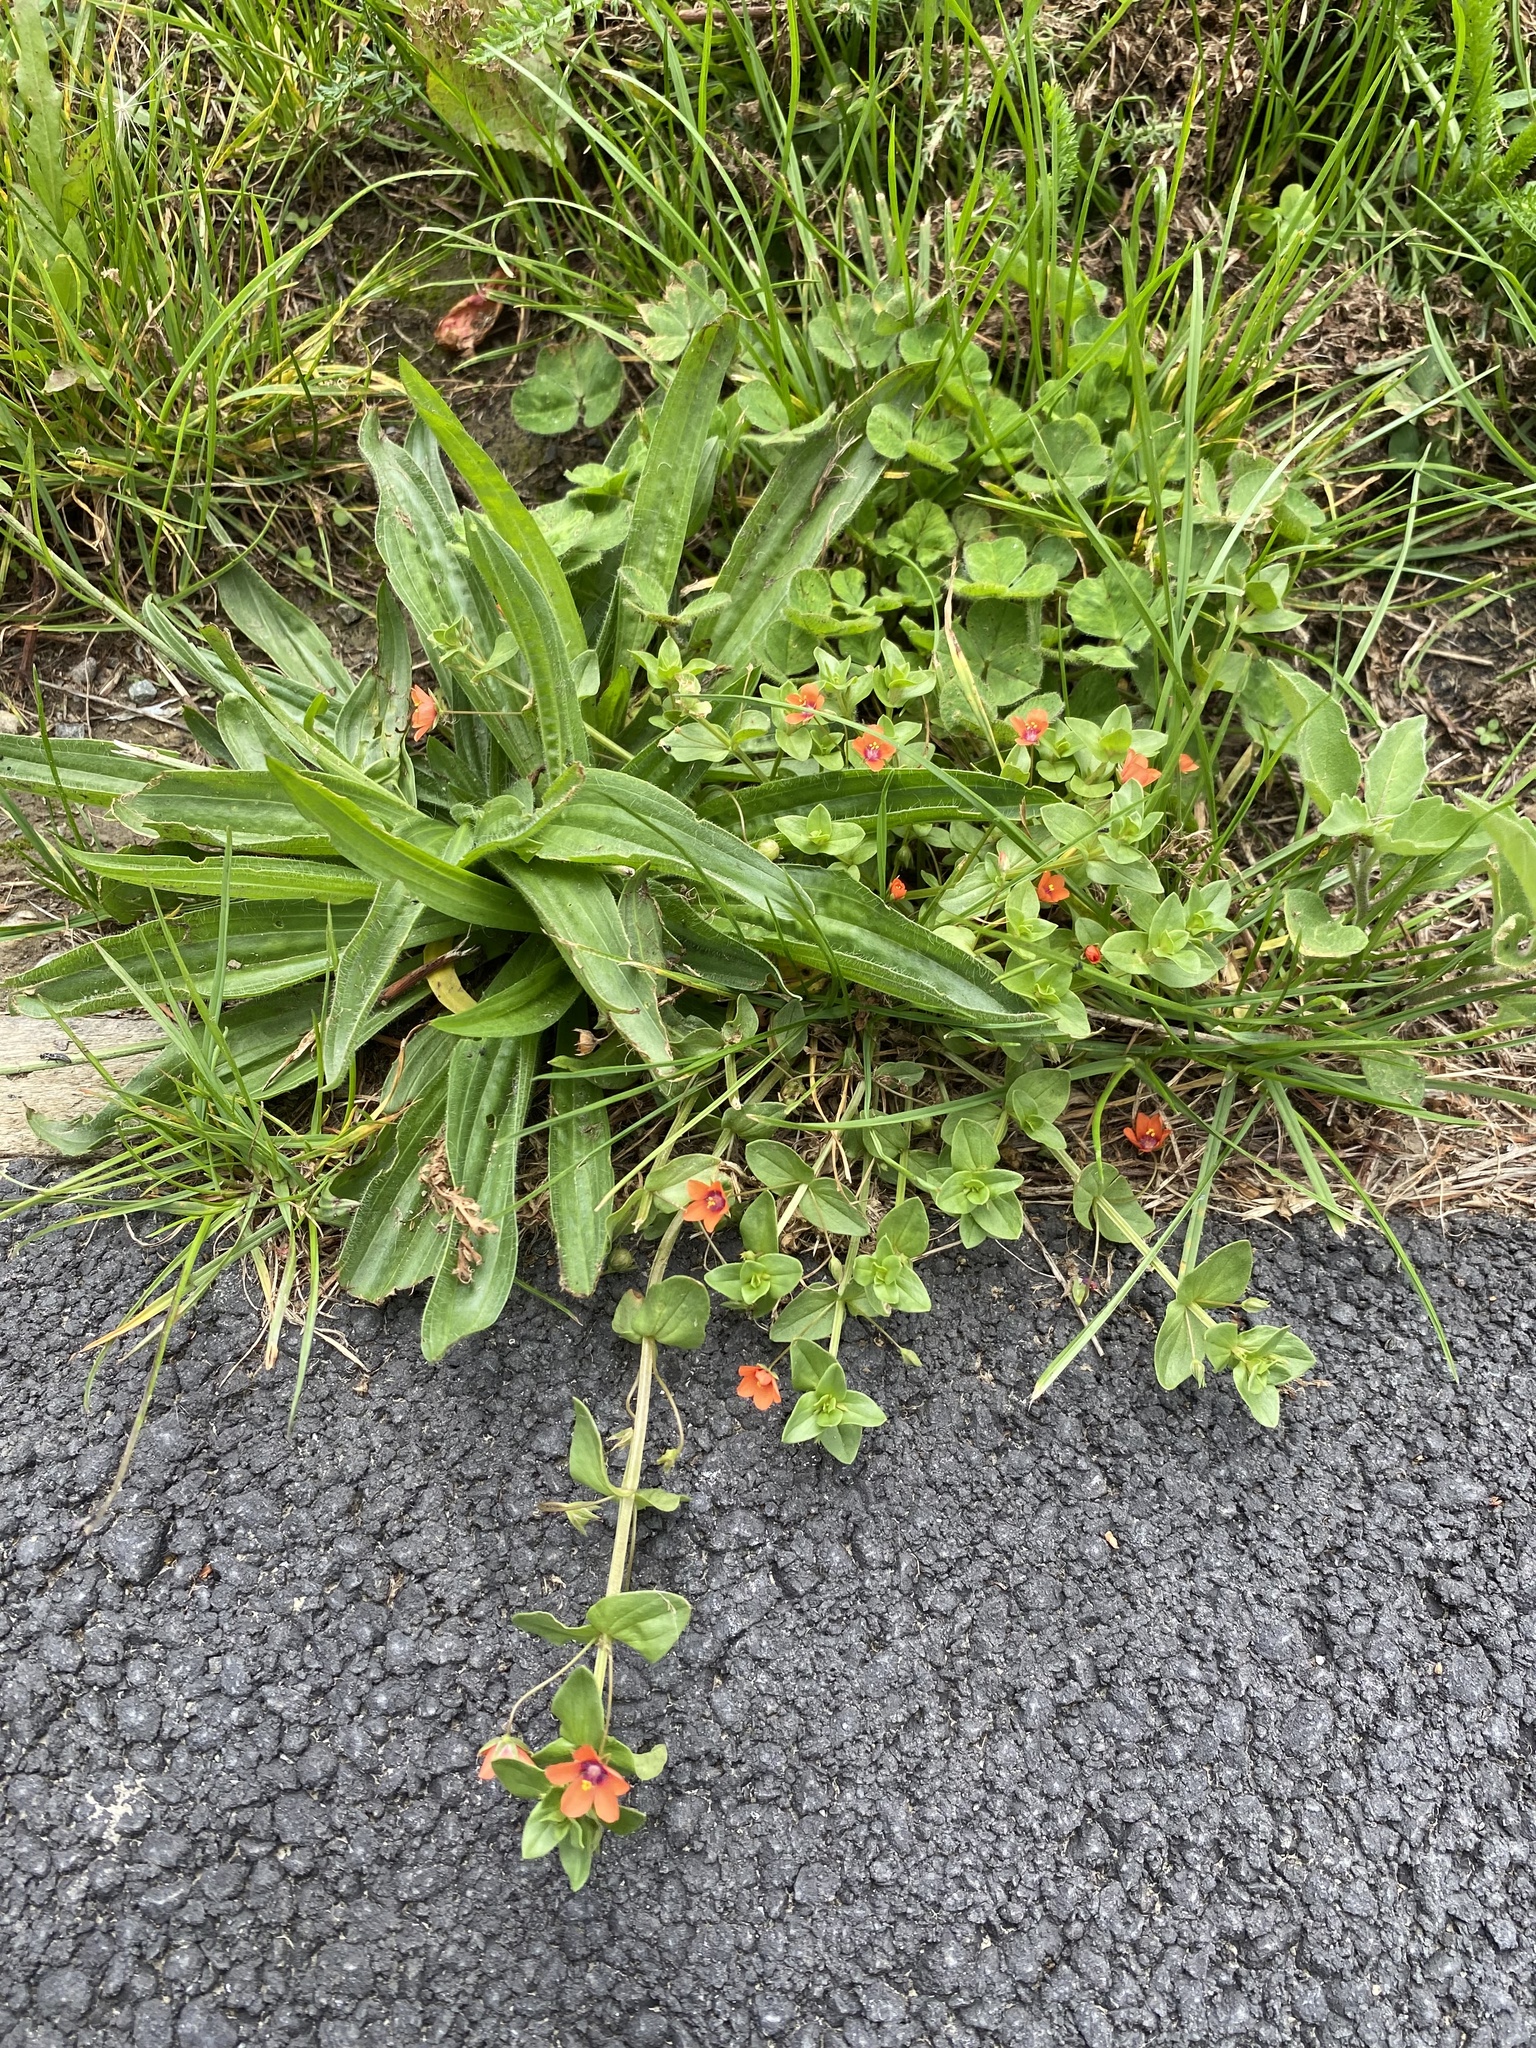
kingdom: Plantae
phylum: Tracheophyta
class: Magnoliopsida
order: Ericales
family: Primulaceae
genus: Lysimachia
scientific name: Lysimachia arvensis
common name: Scarlet pimpernel
